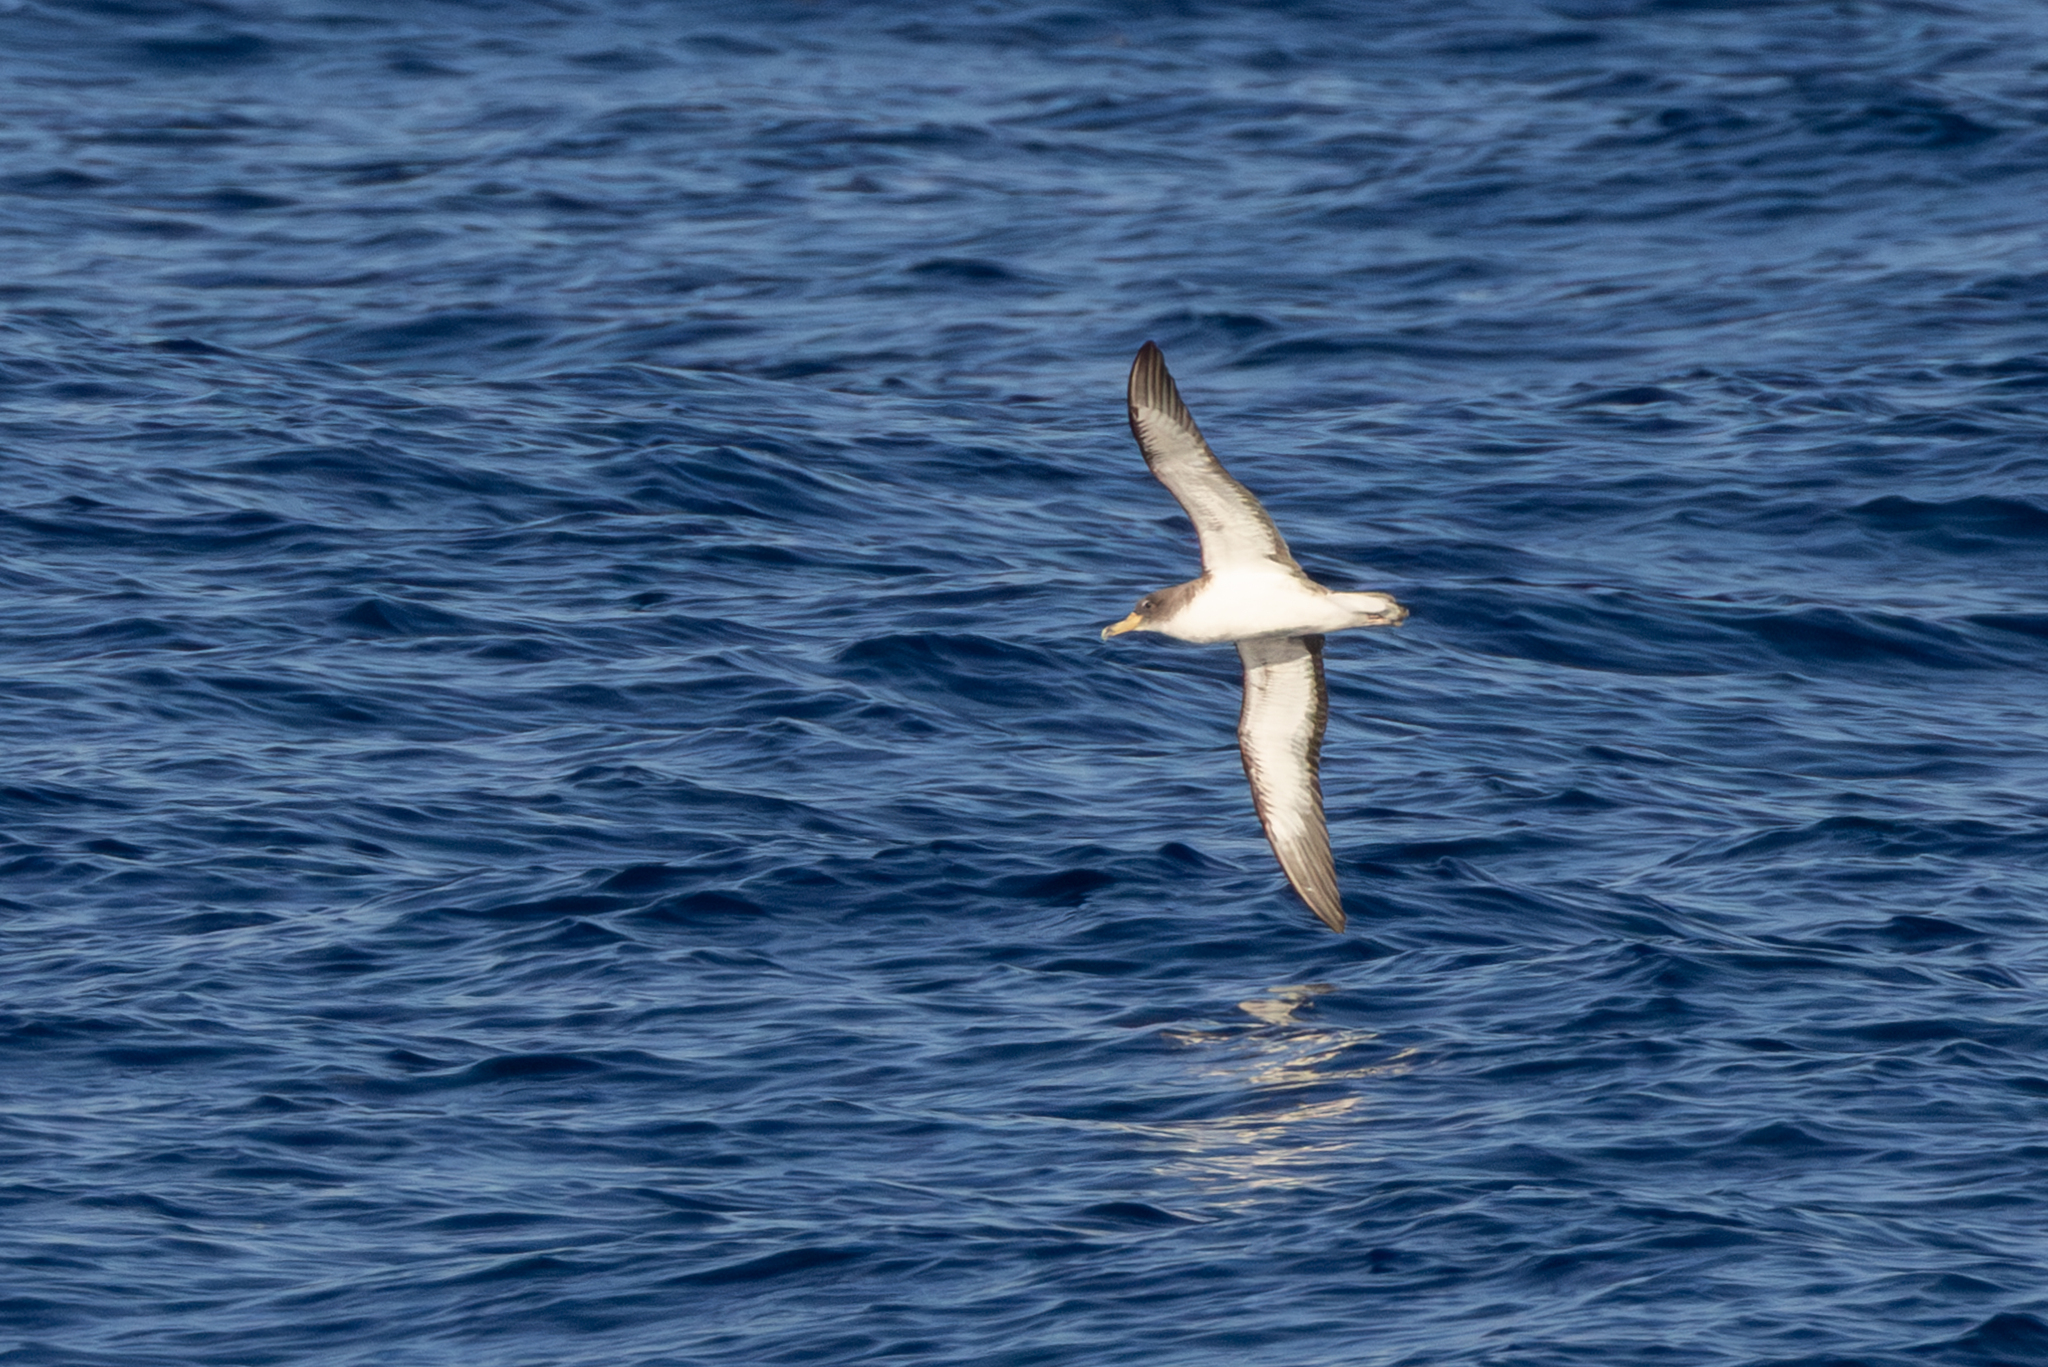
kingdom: Animalia
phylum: Chordata
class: Aves
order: Procellariiformes
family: Procellariidae
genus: Calonectris
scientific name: Calonectris diomedea
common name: Cory's shearwater
